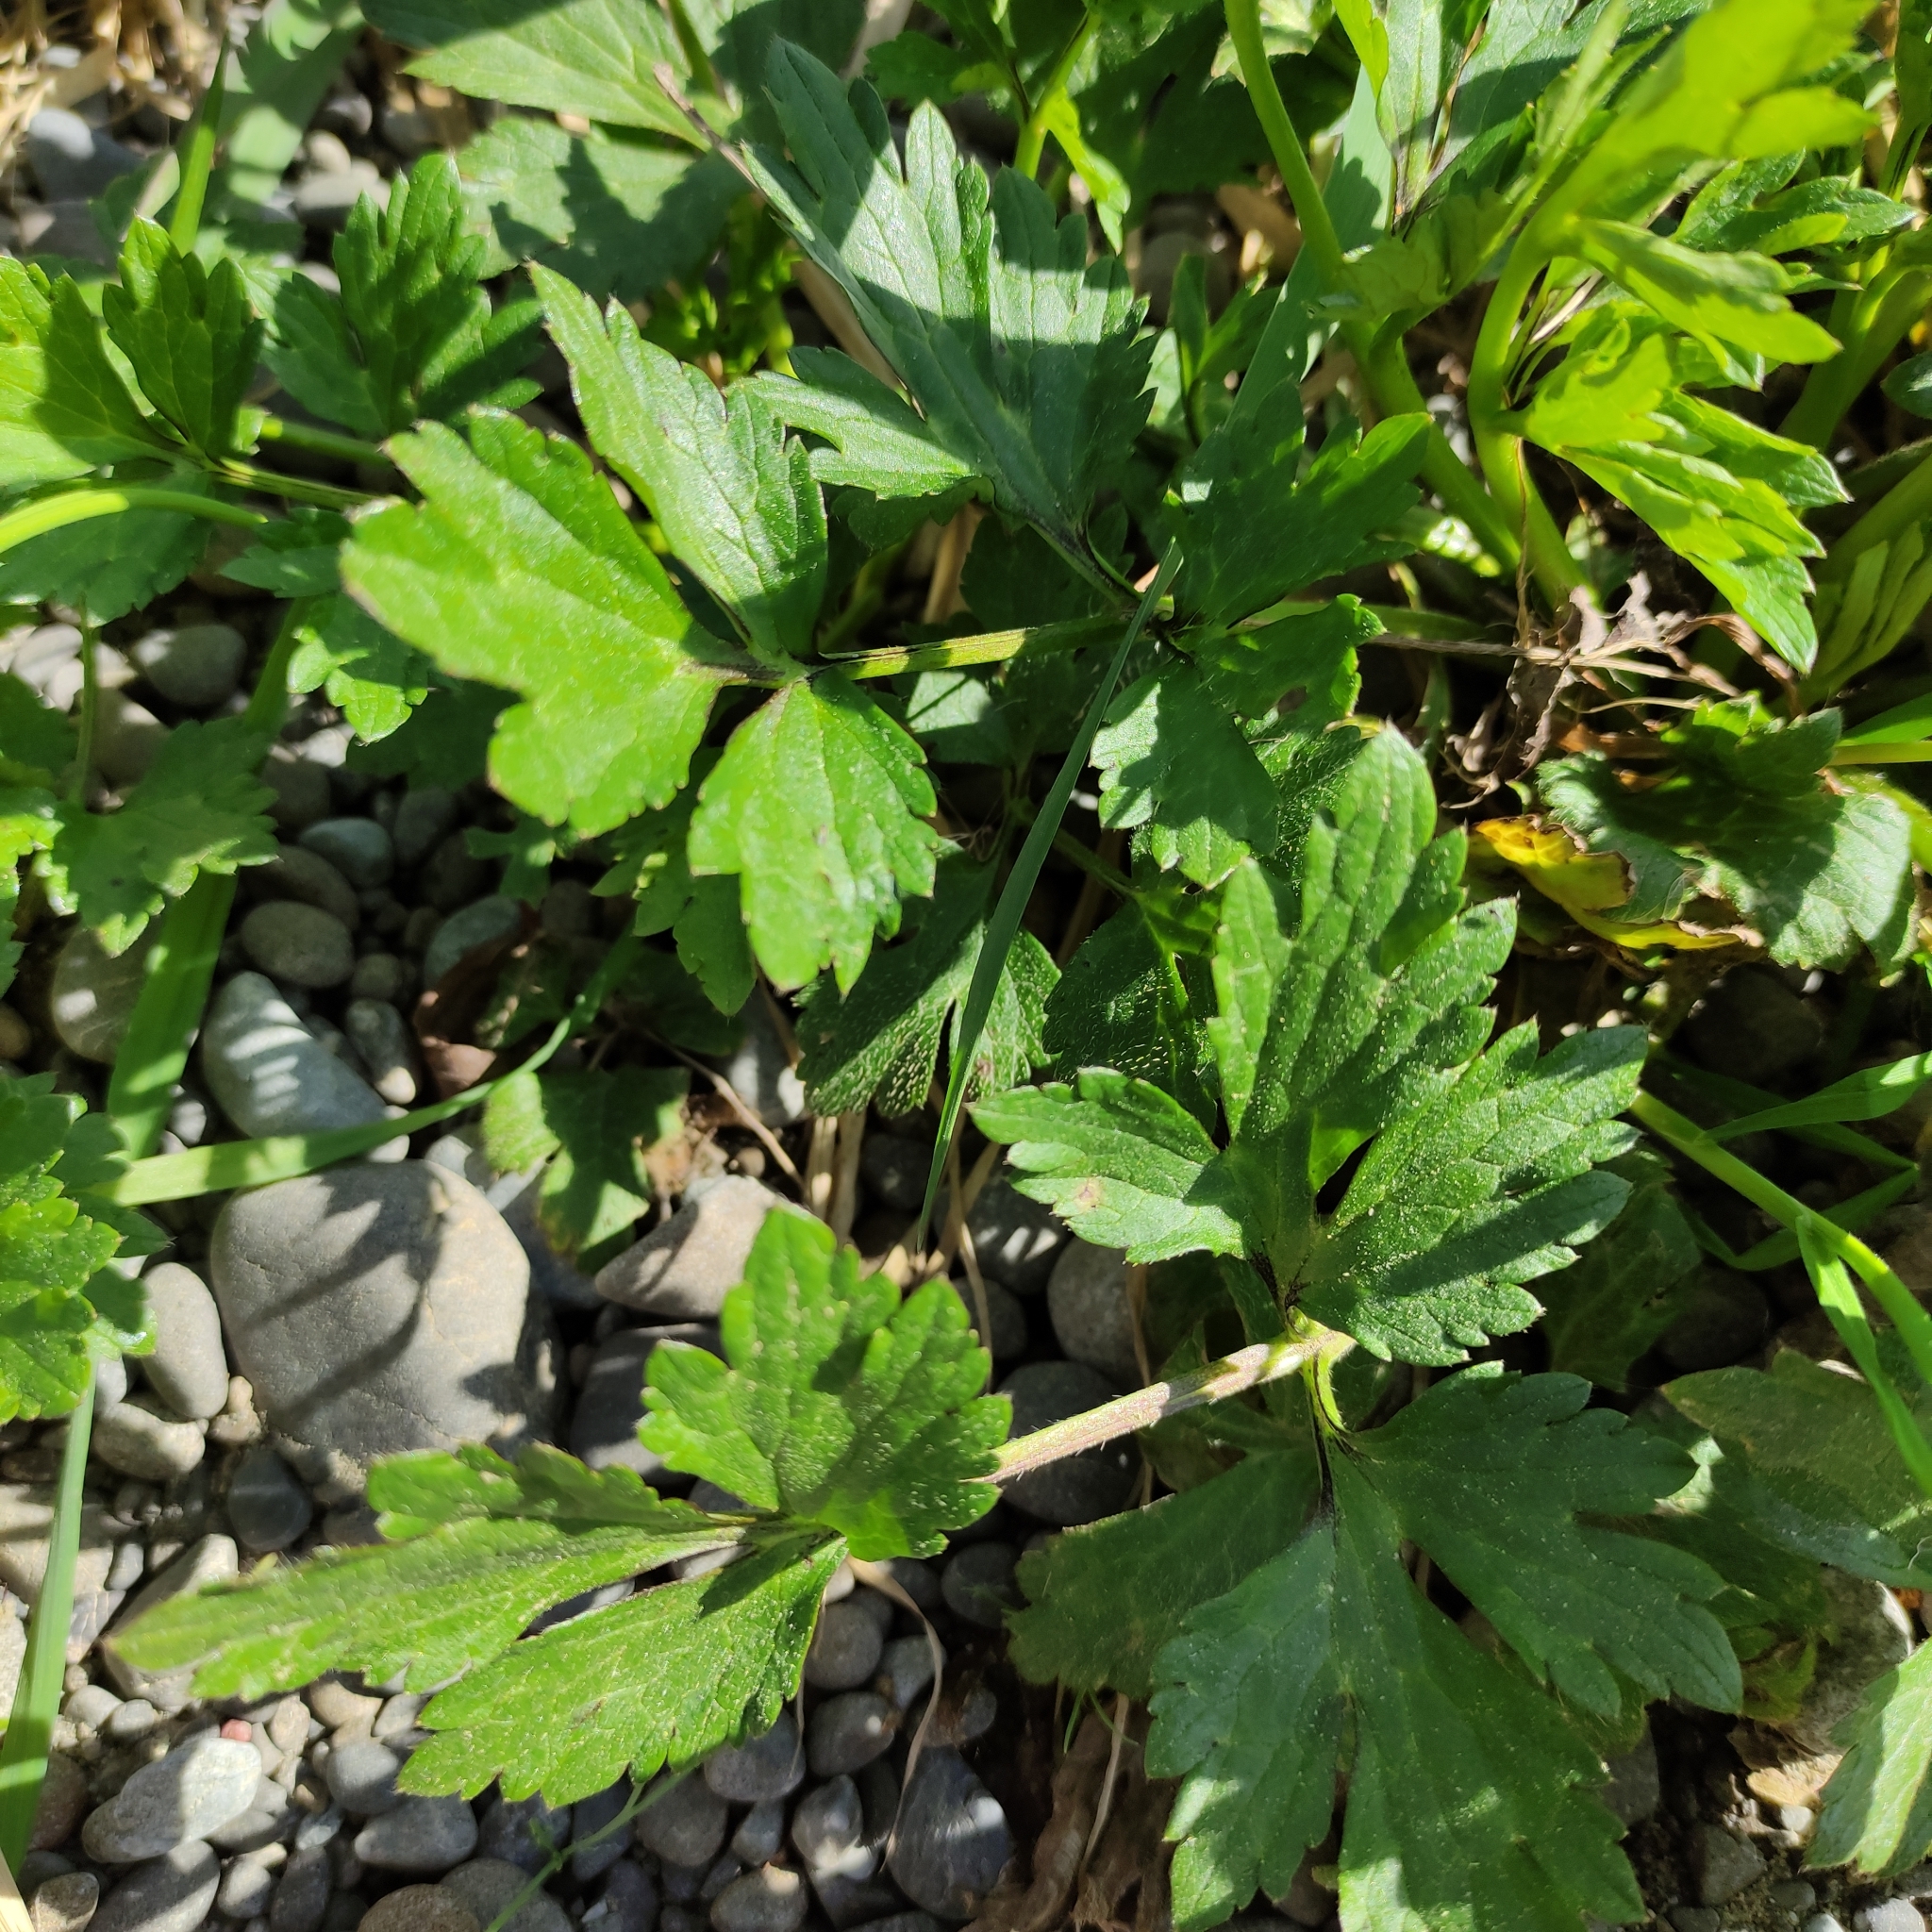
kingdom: Plantae
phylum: Tracheophyta
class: Magnoliopsida
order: Ranunculales
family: Ranunculaceae
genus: Ranunculus
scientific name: Ranunculus repens
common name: Creeping buttercup
